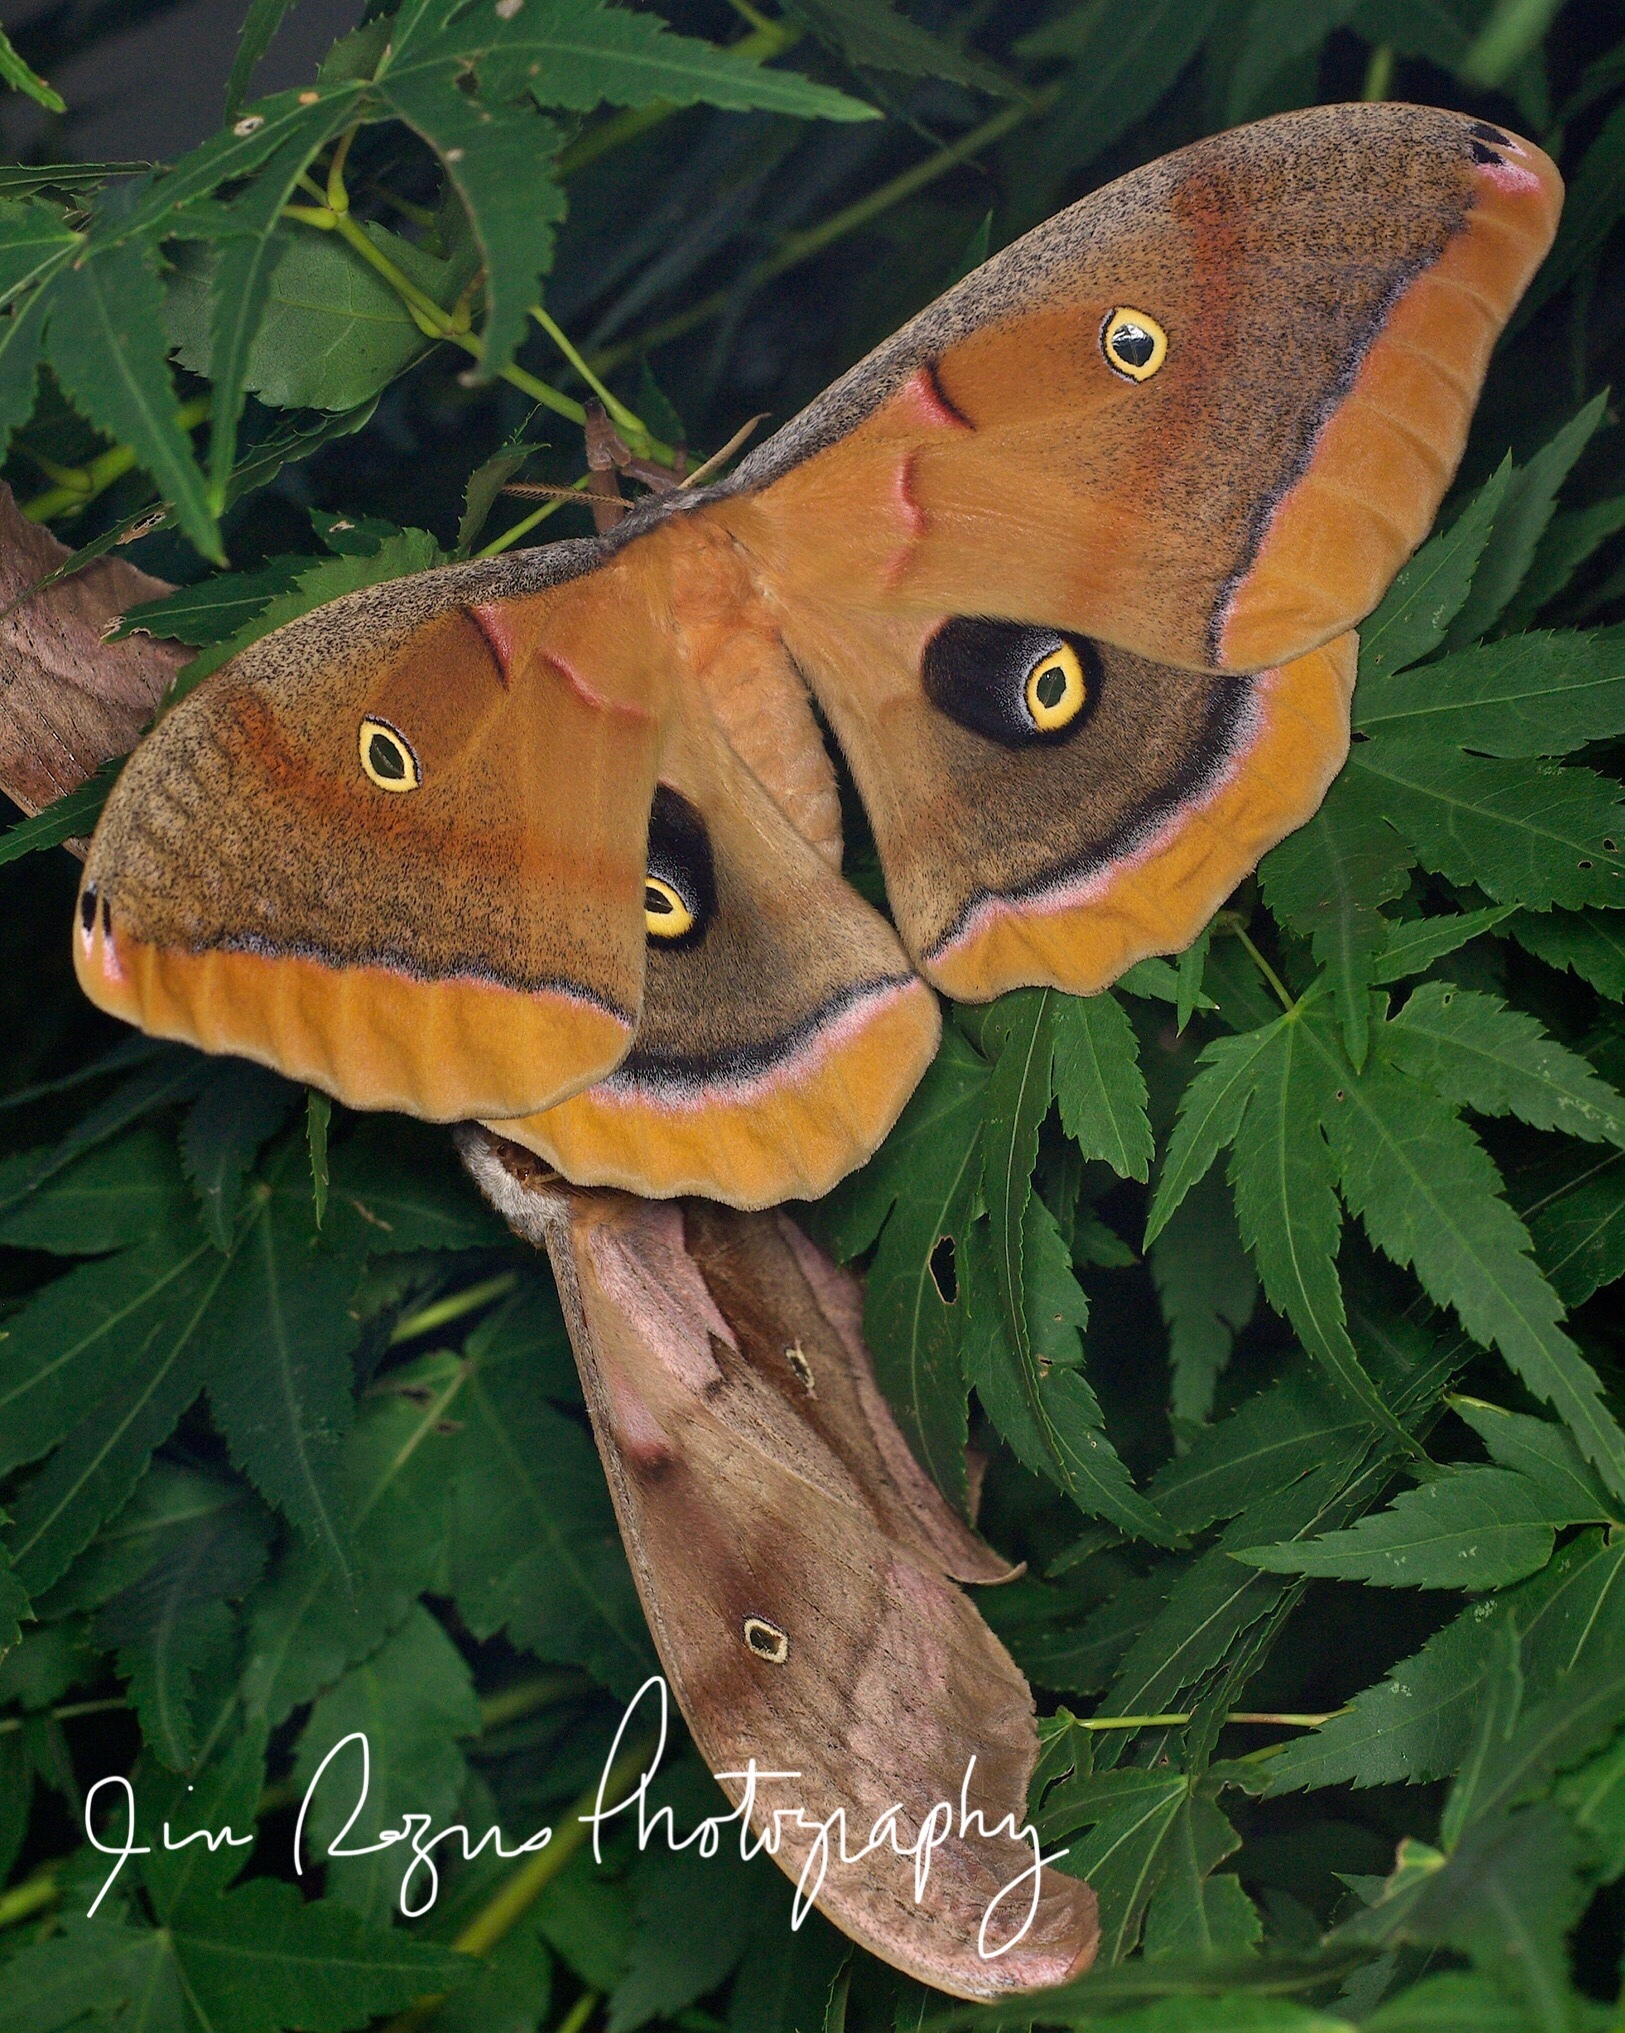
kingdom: Animalia
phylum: Arthropoda
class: Insecta
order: Lepidoptera
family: Saturniidae
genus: Antheraea
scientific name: Antheraea polyphemus
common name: Polyphemus moth
